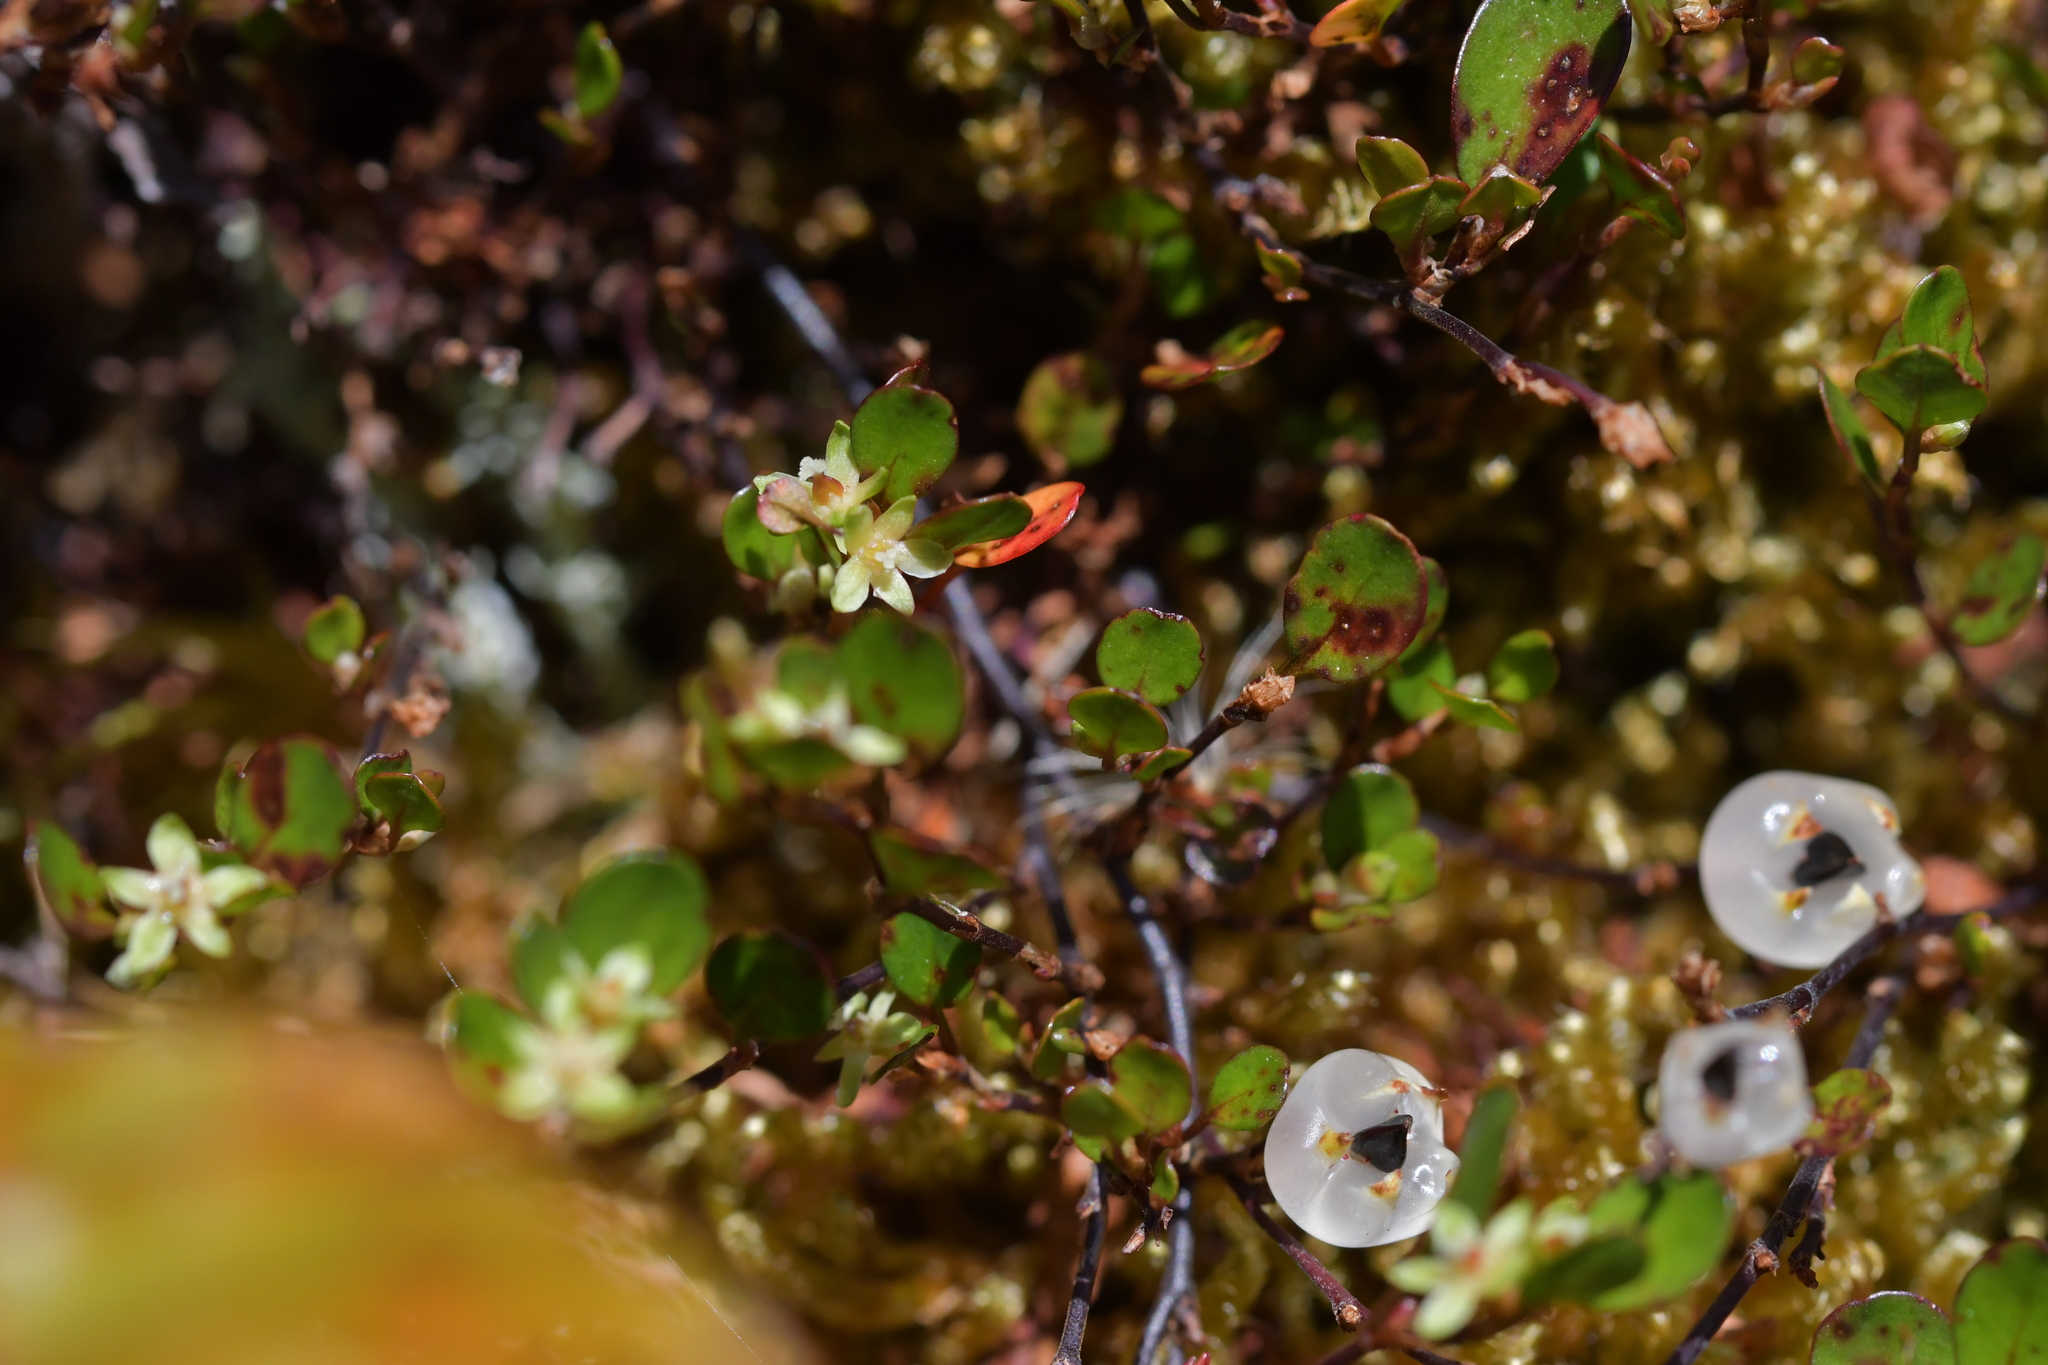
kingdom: Plantae
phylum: Tracheophyta
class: Magnoliopsida
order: Caryophyllales
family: Polygonaceae
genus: Muehlenbeckia
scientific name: Muehlenbeckia axillaris
